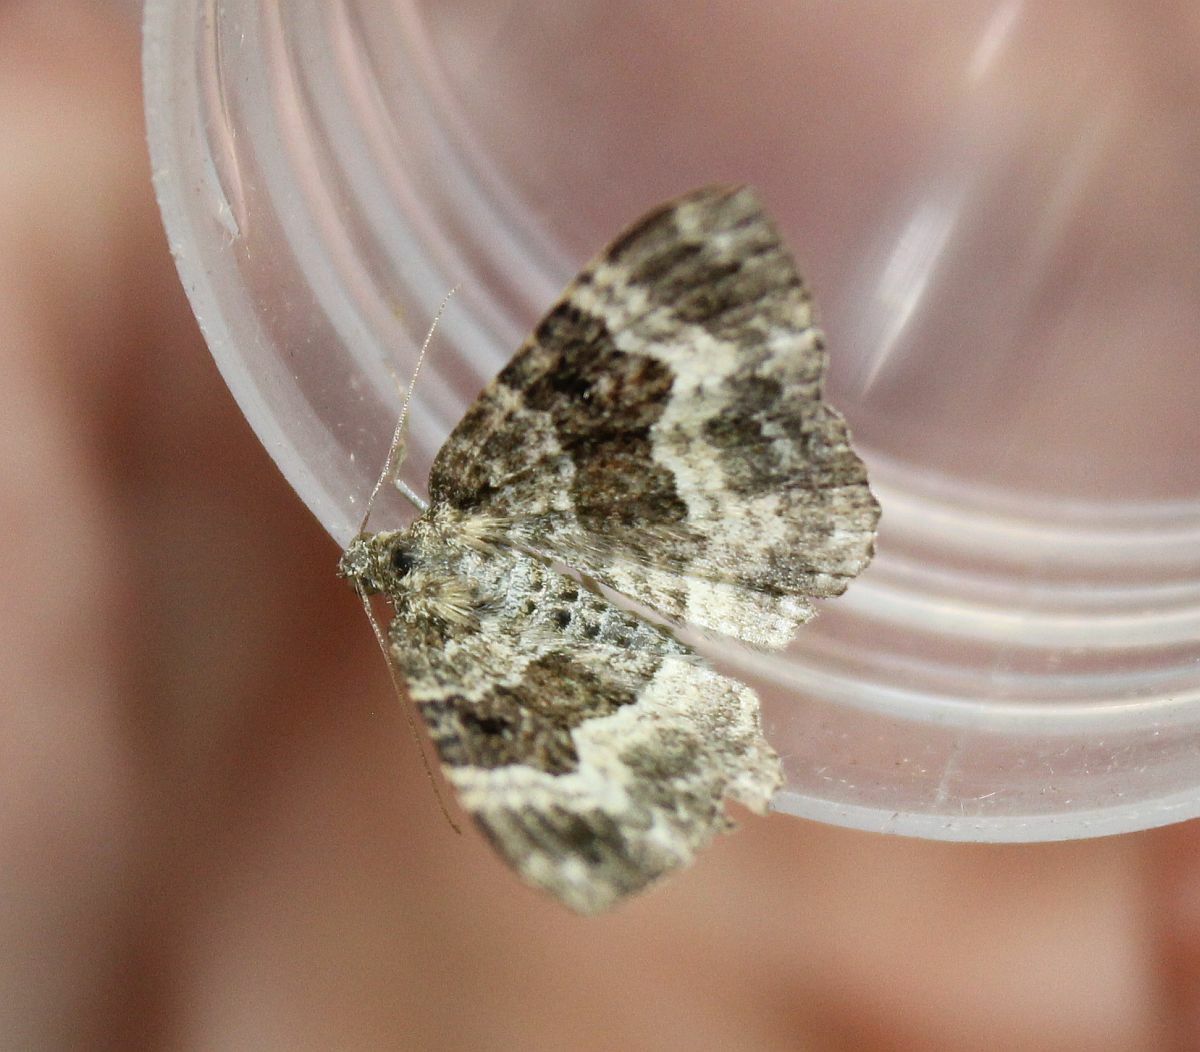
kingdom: Animalia
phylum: Arthropoda
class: Insecta
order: Lepidoptera
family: Geometridae
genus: Epirrhoe
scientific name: Epirrhoe alternata
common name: Common carpet
